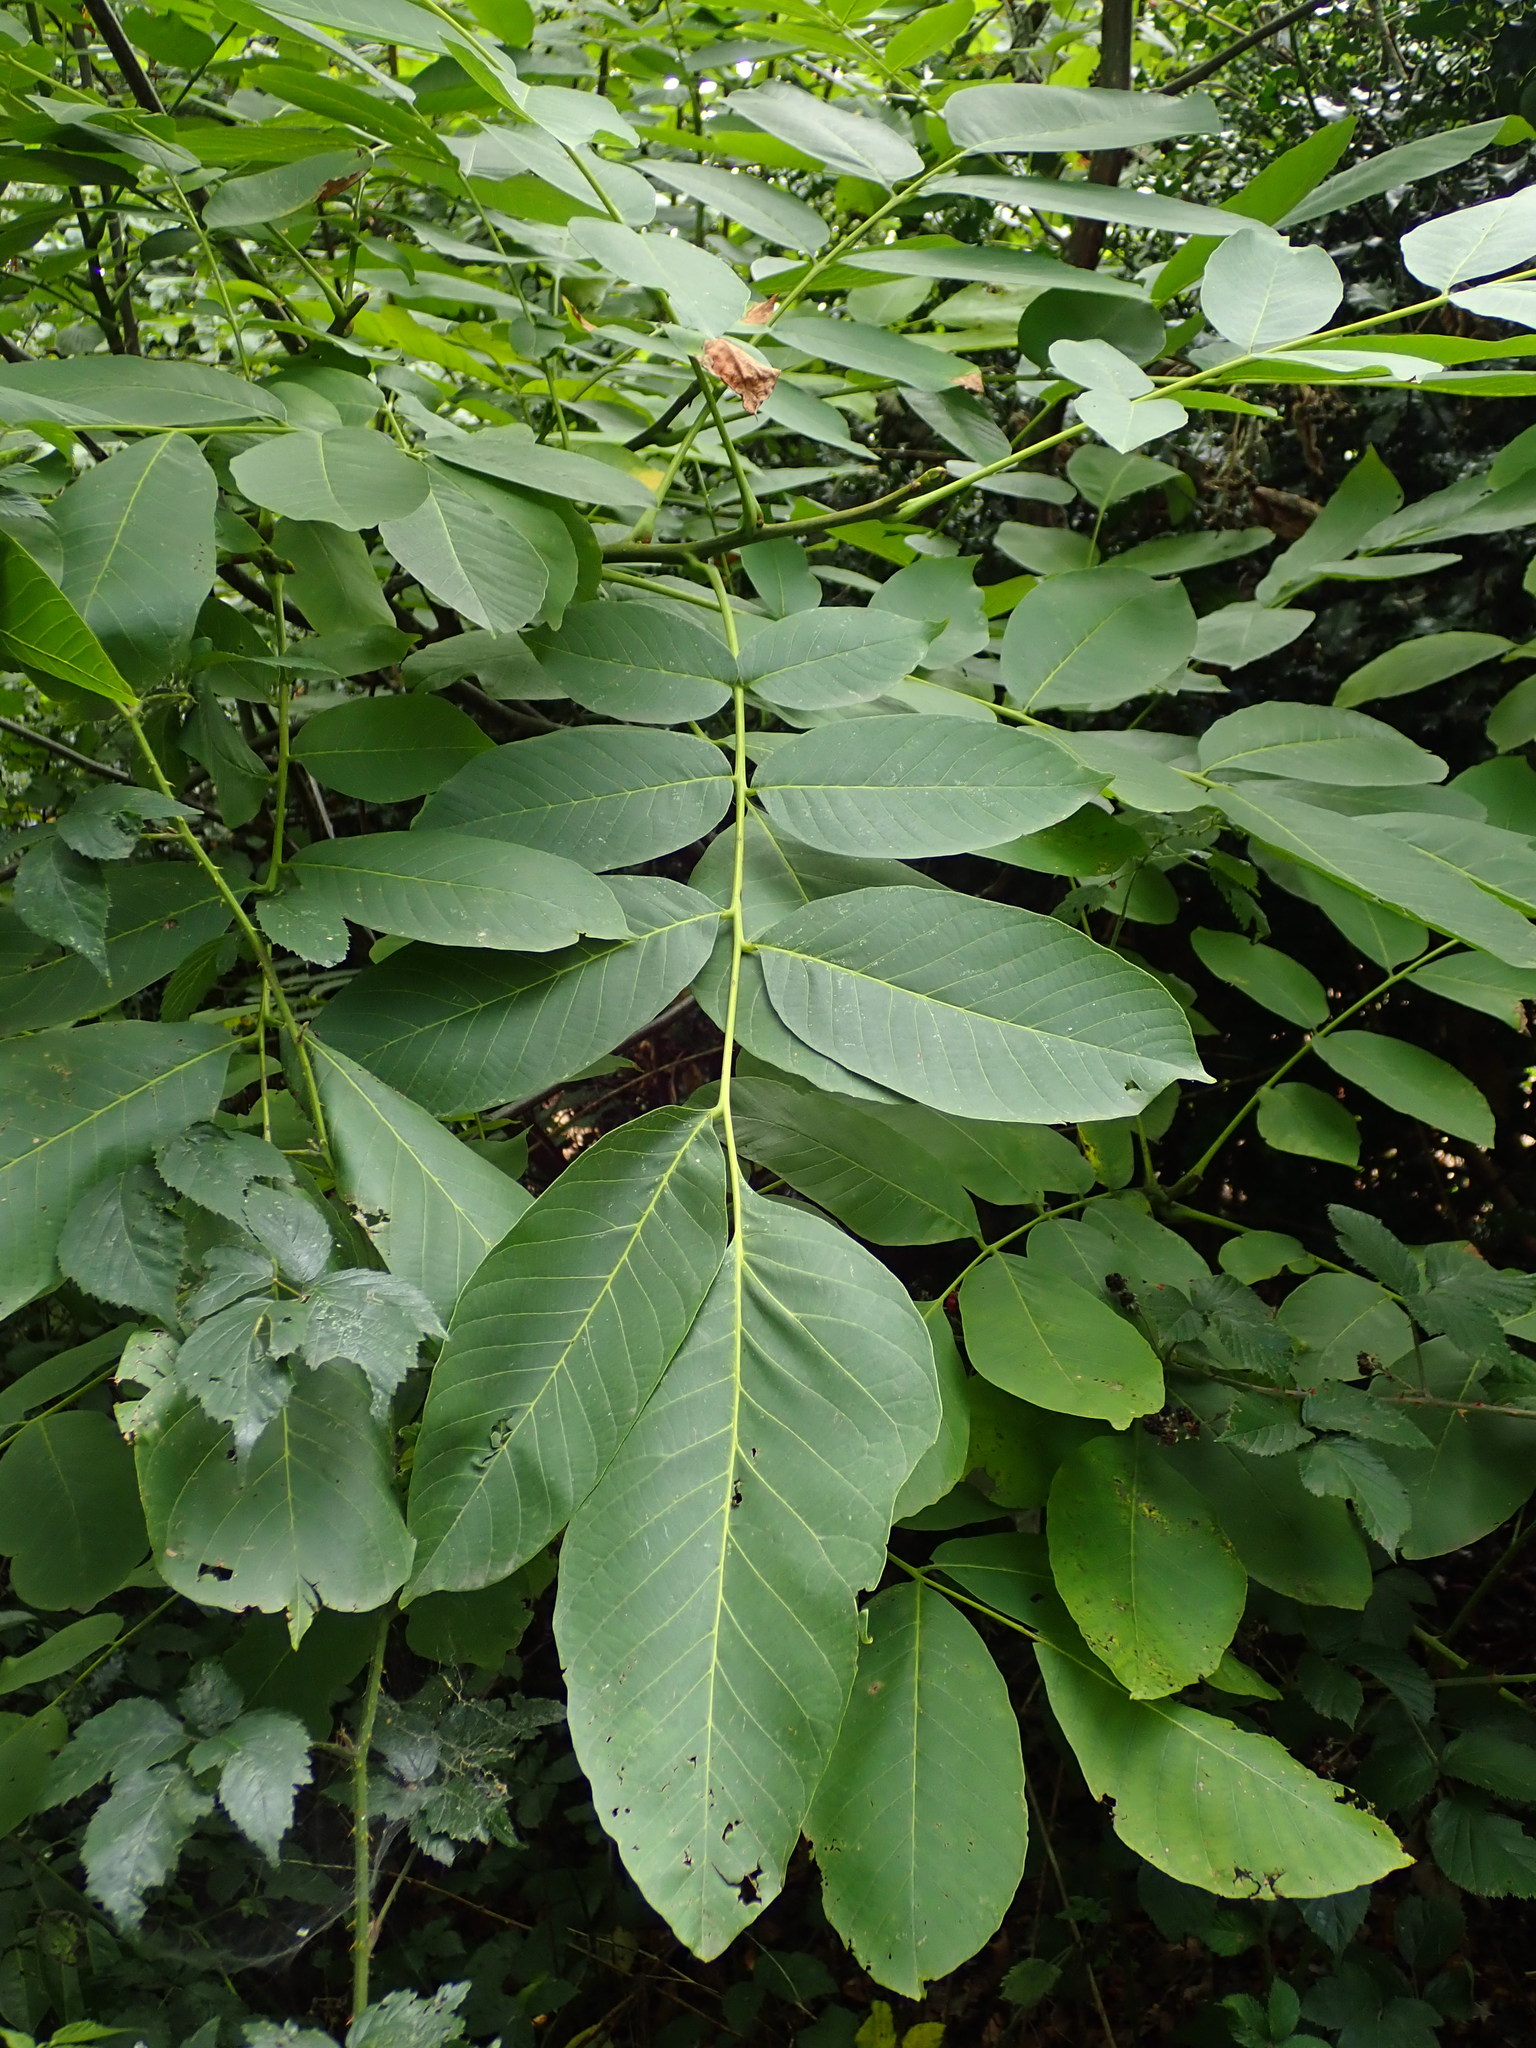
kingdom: Plantae
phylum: Tracheophyta
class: Magnoliopsida
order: Fagales
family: Juglandaceae
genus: Juglans
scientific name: Juglans regia
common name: Walnut
